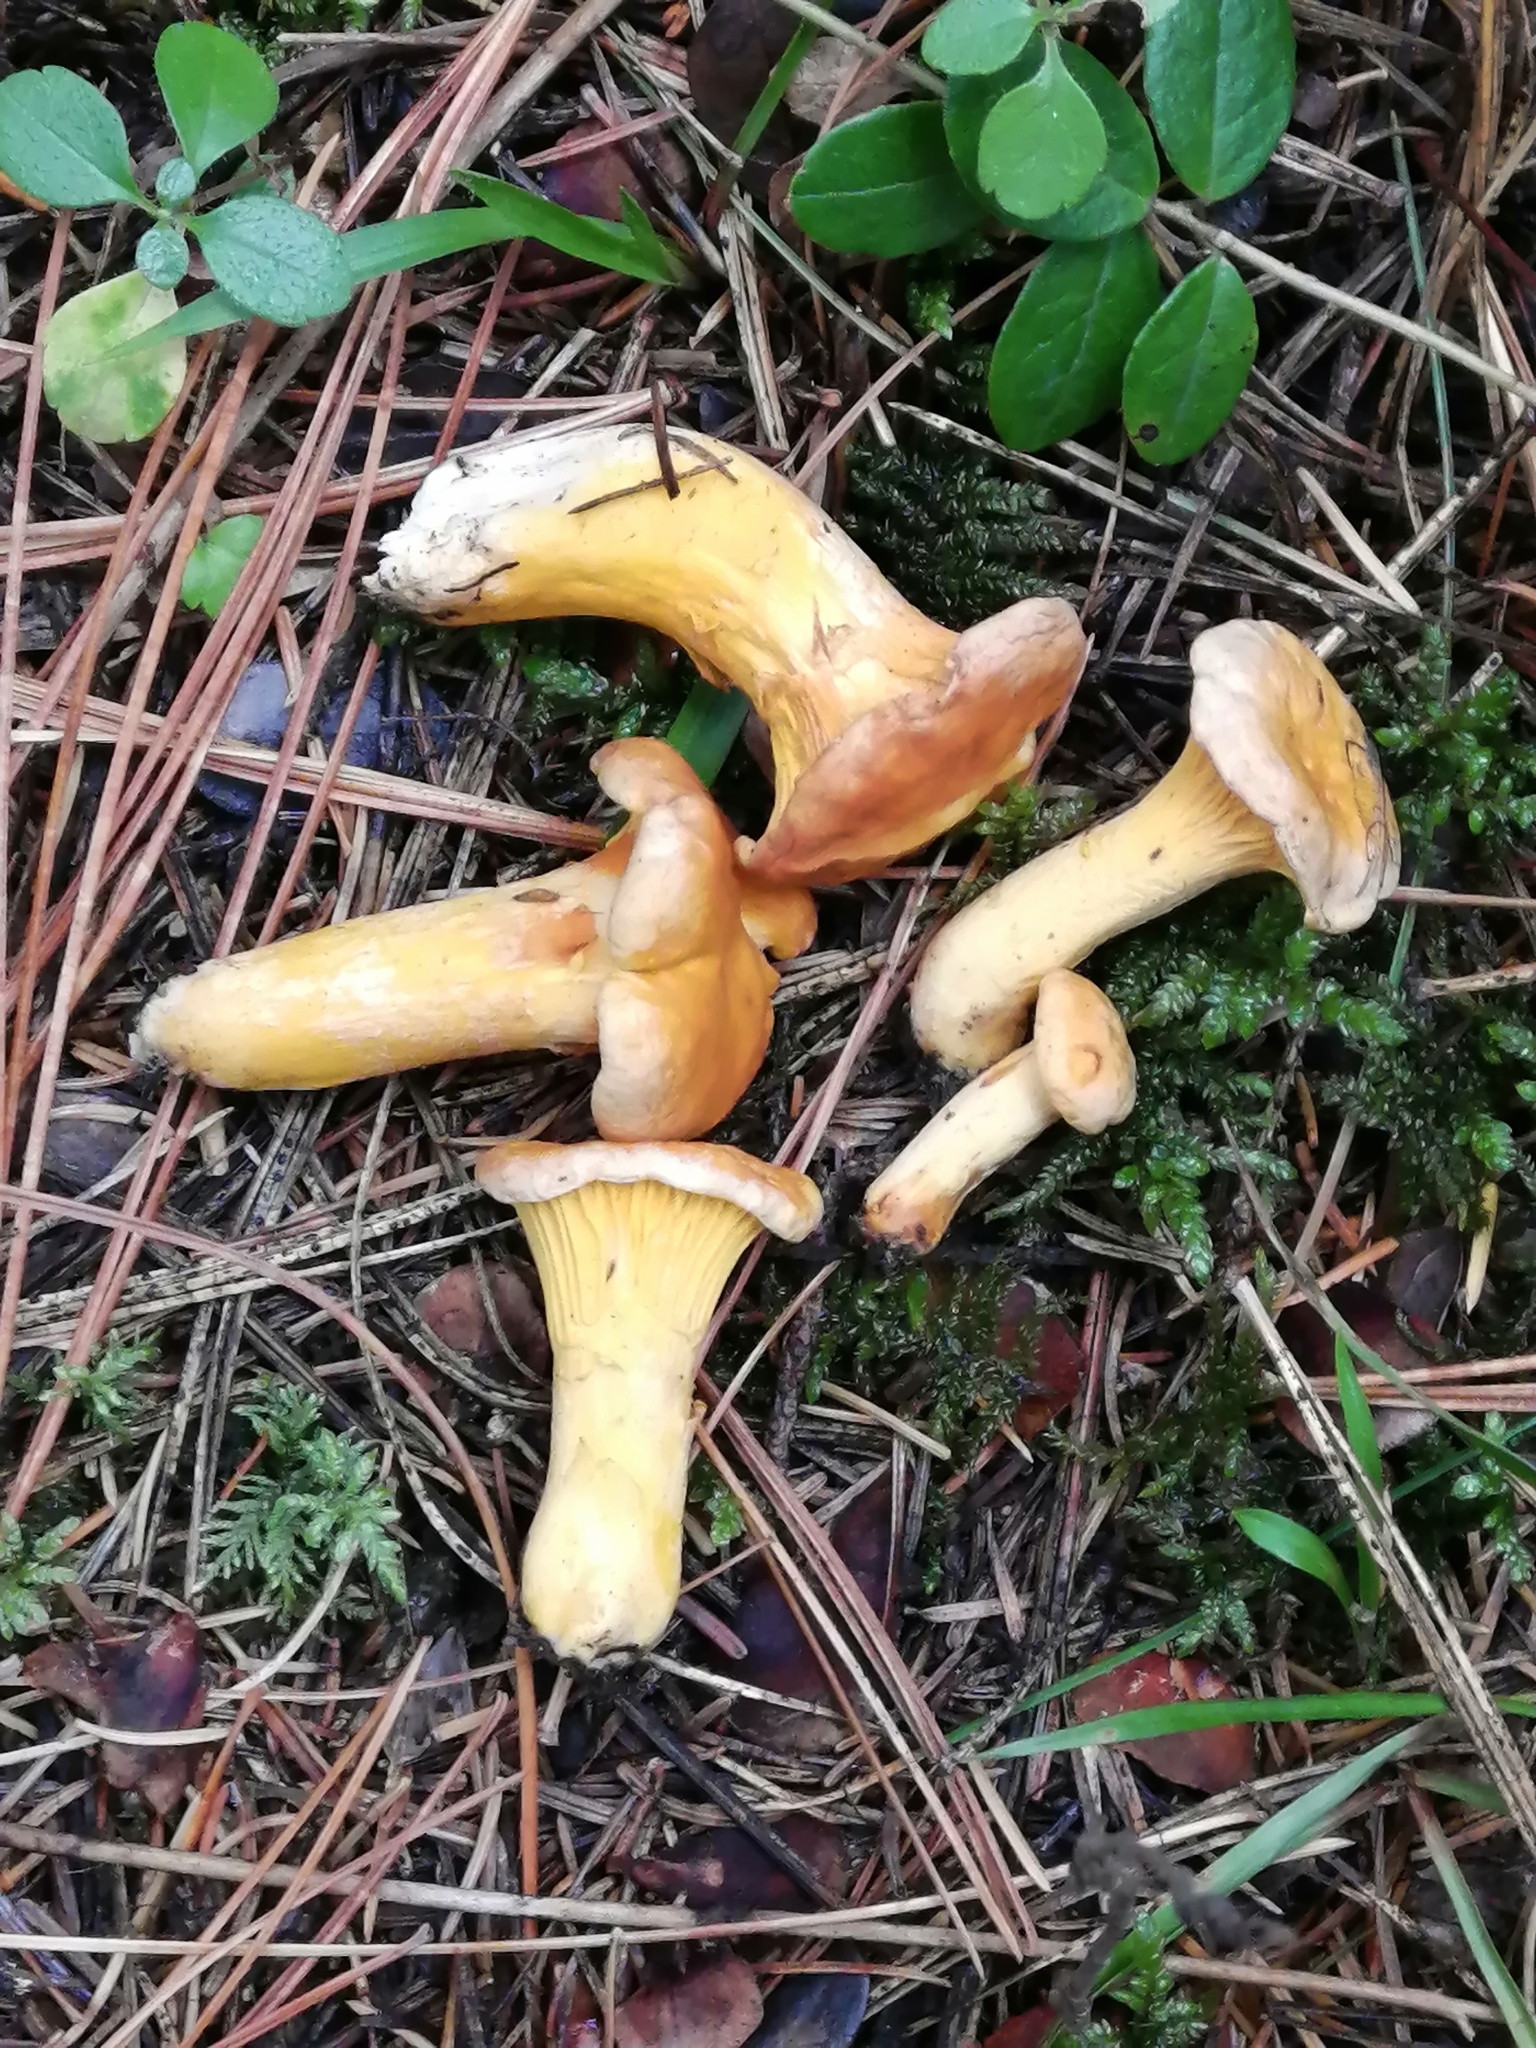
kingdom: Fungi
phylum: Basidiomycota
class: Agaricomycetes
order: Cantharellales
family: Hydnaceae
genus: Cantharellus
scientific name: Cantharellus cibarius
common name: Chanterelle
